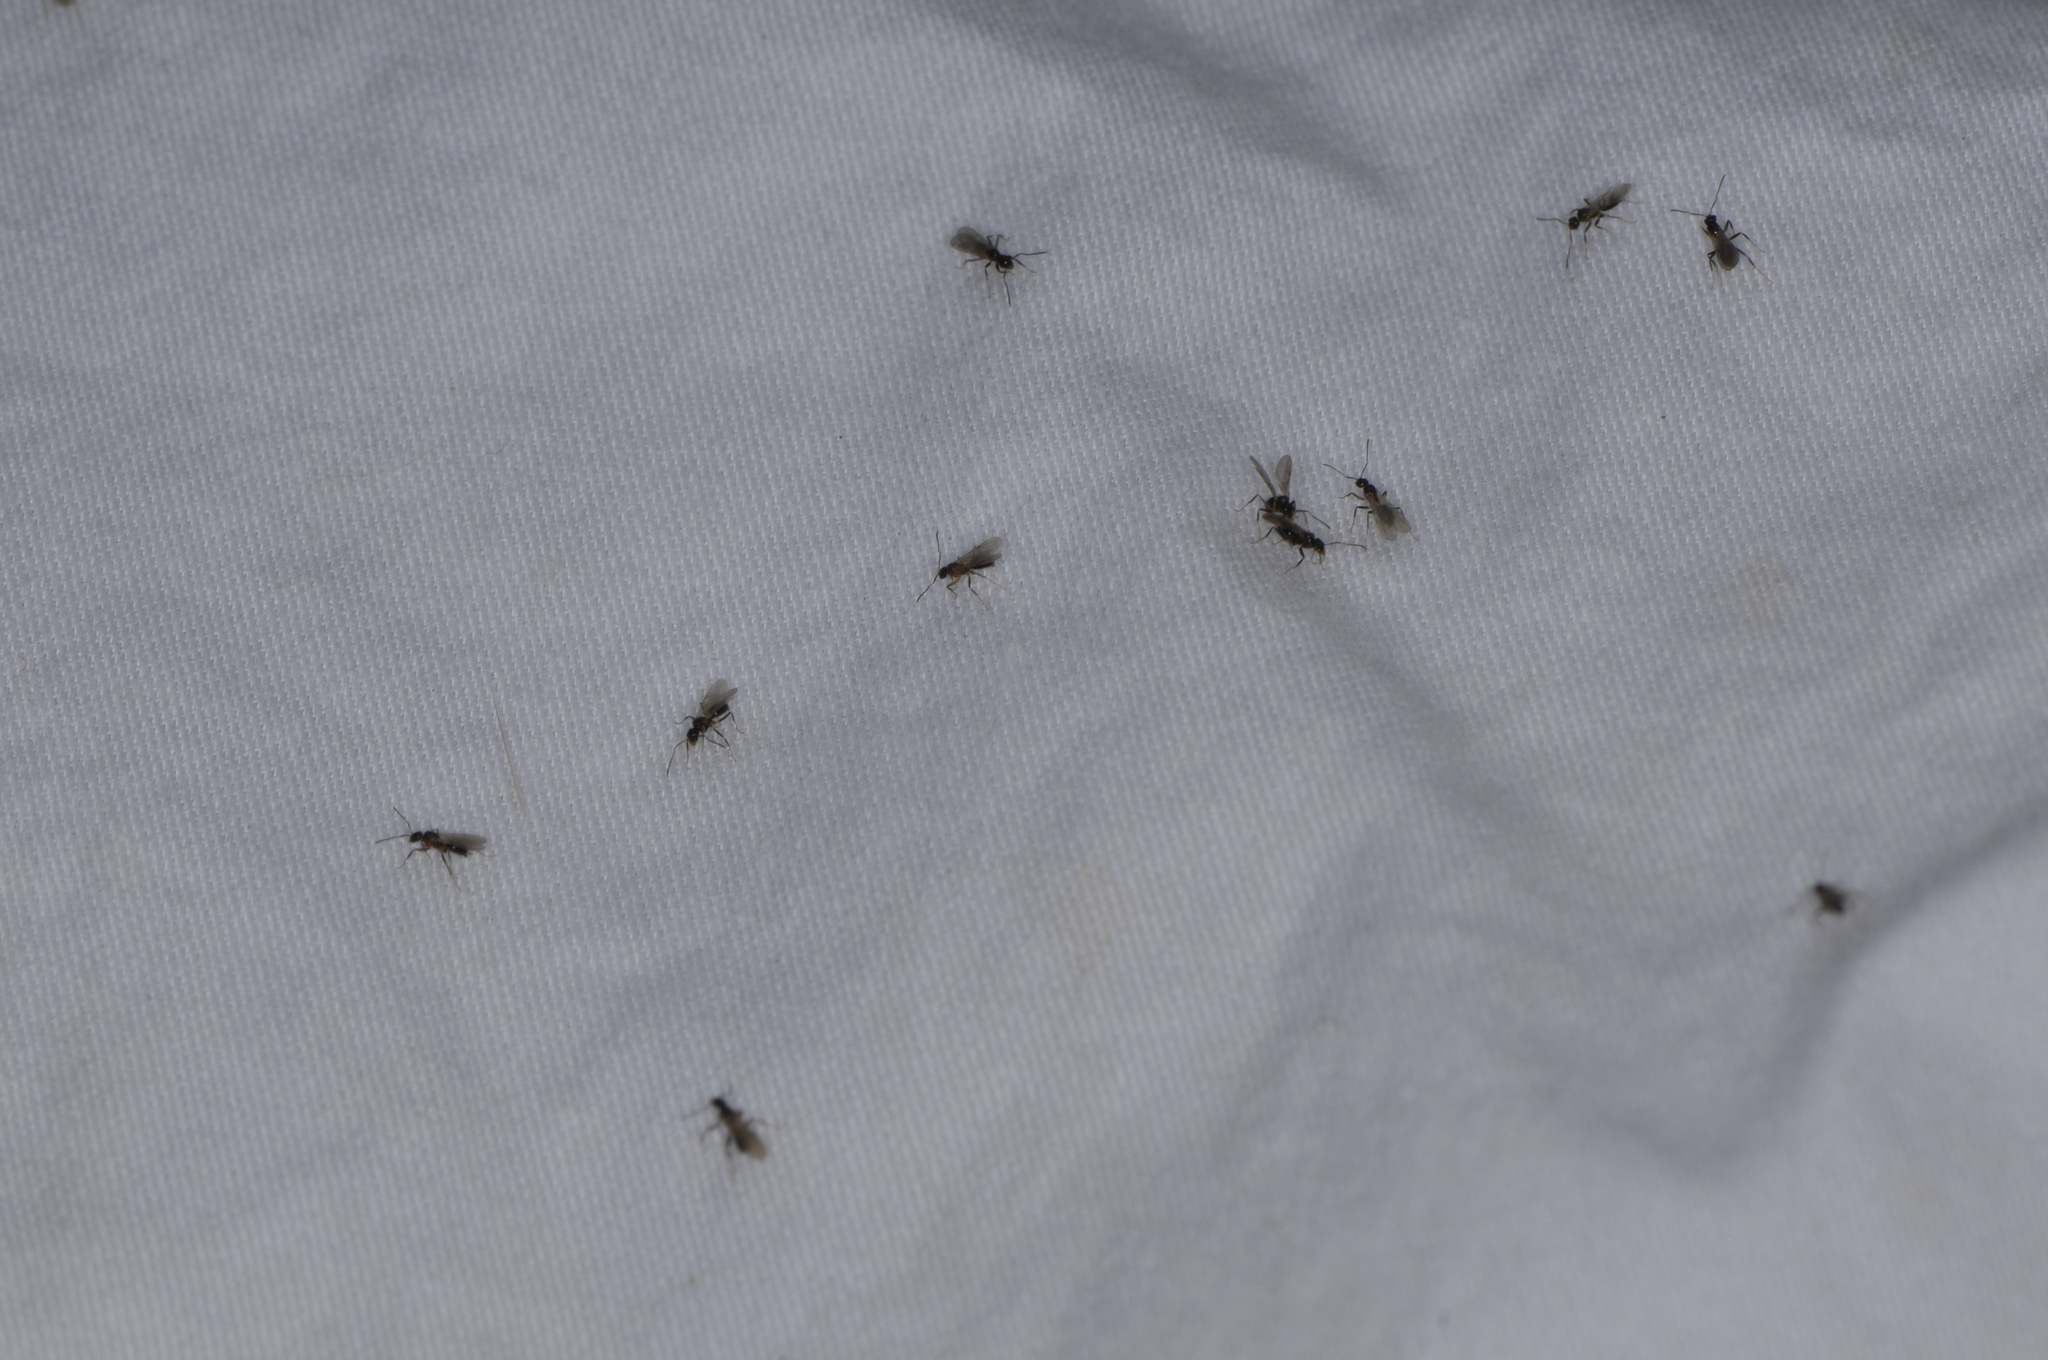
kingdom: Animalia
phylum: Arthropoda
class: Insecta
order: Hymenoptera
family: Formicidae
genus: Nylanderia
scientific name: Nylanderia
